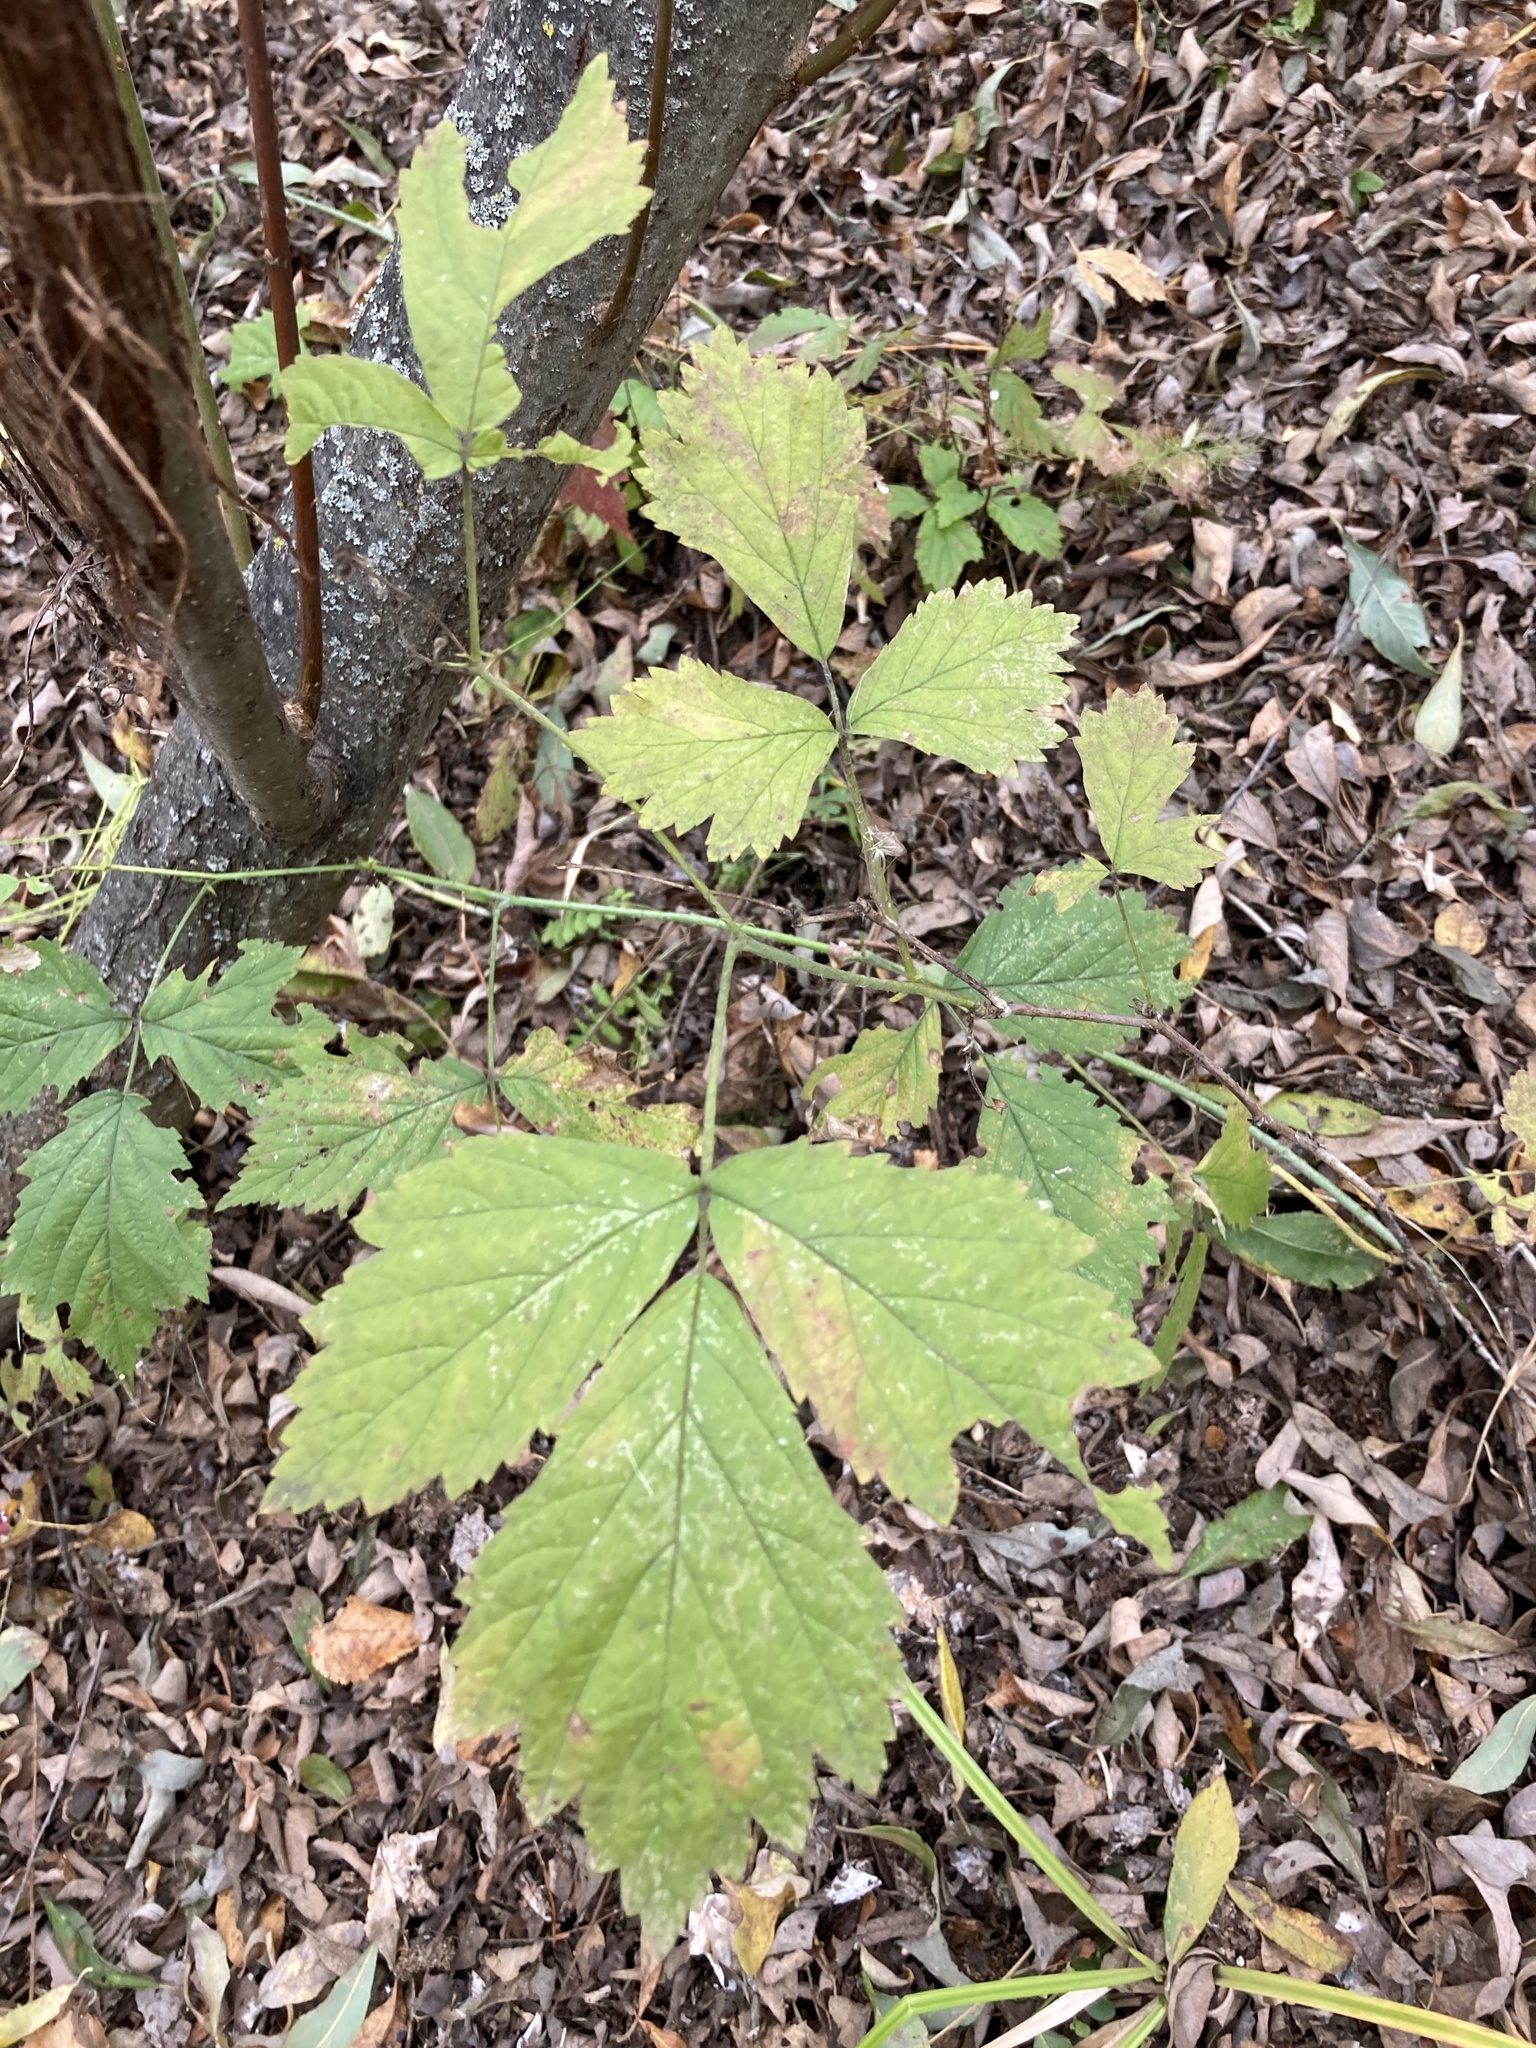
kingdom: Plantae
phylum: Tracheophyta
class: Magnoliopsida
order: Rosales
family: Rosaceae
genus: Rubus
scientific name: Rubus caesius
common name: Dewberry
